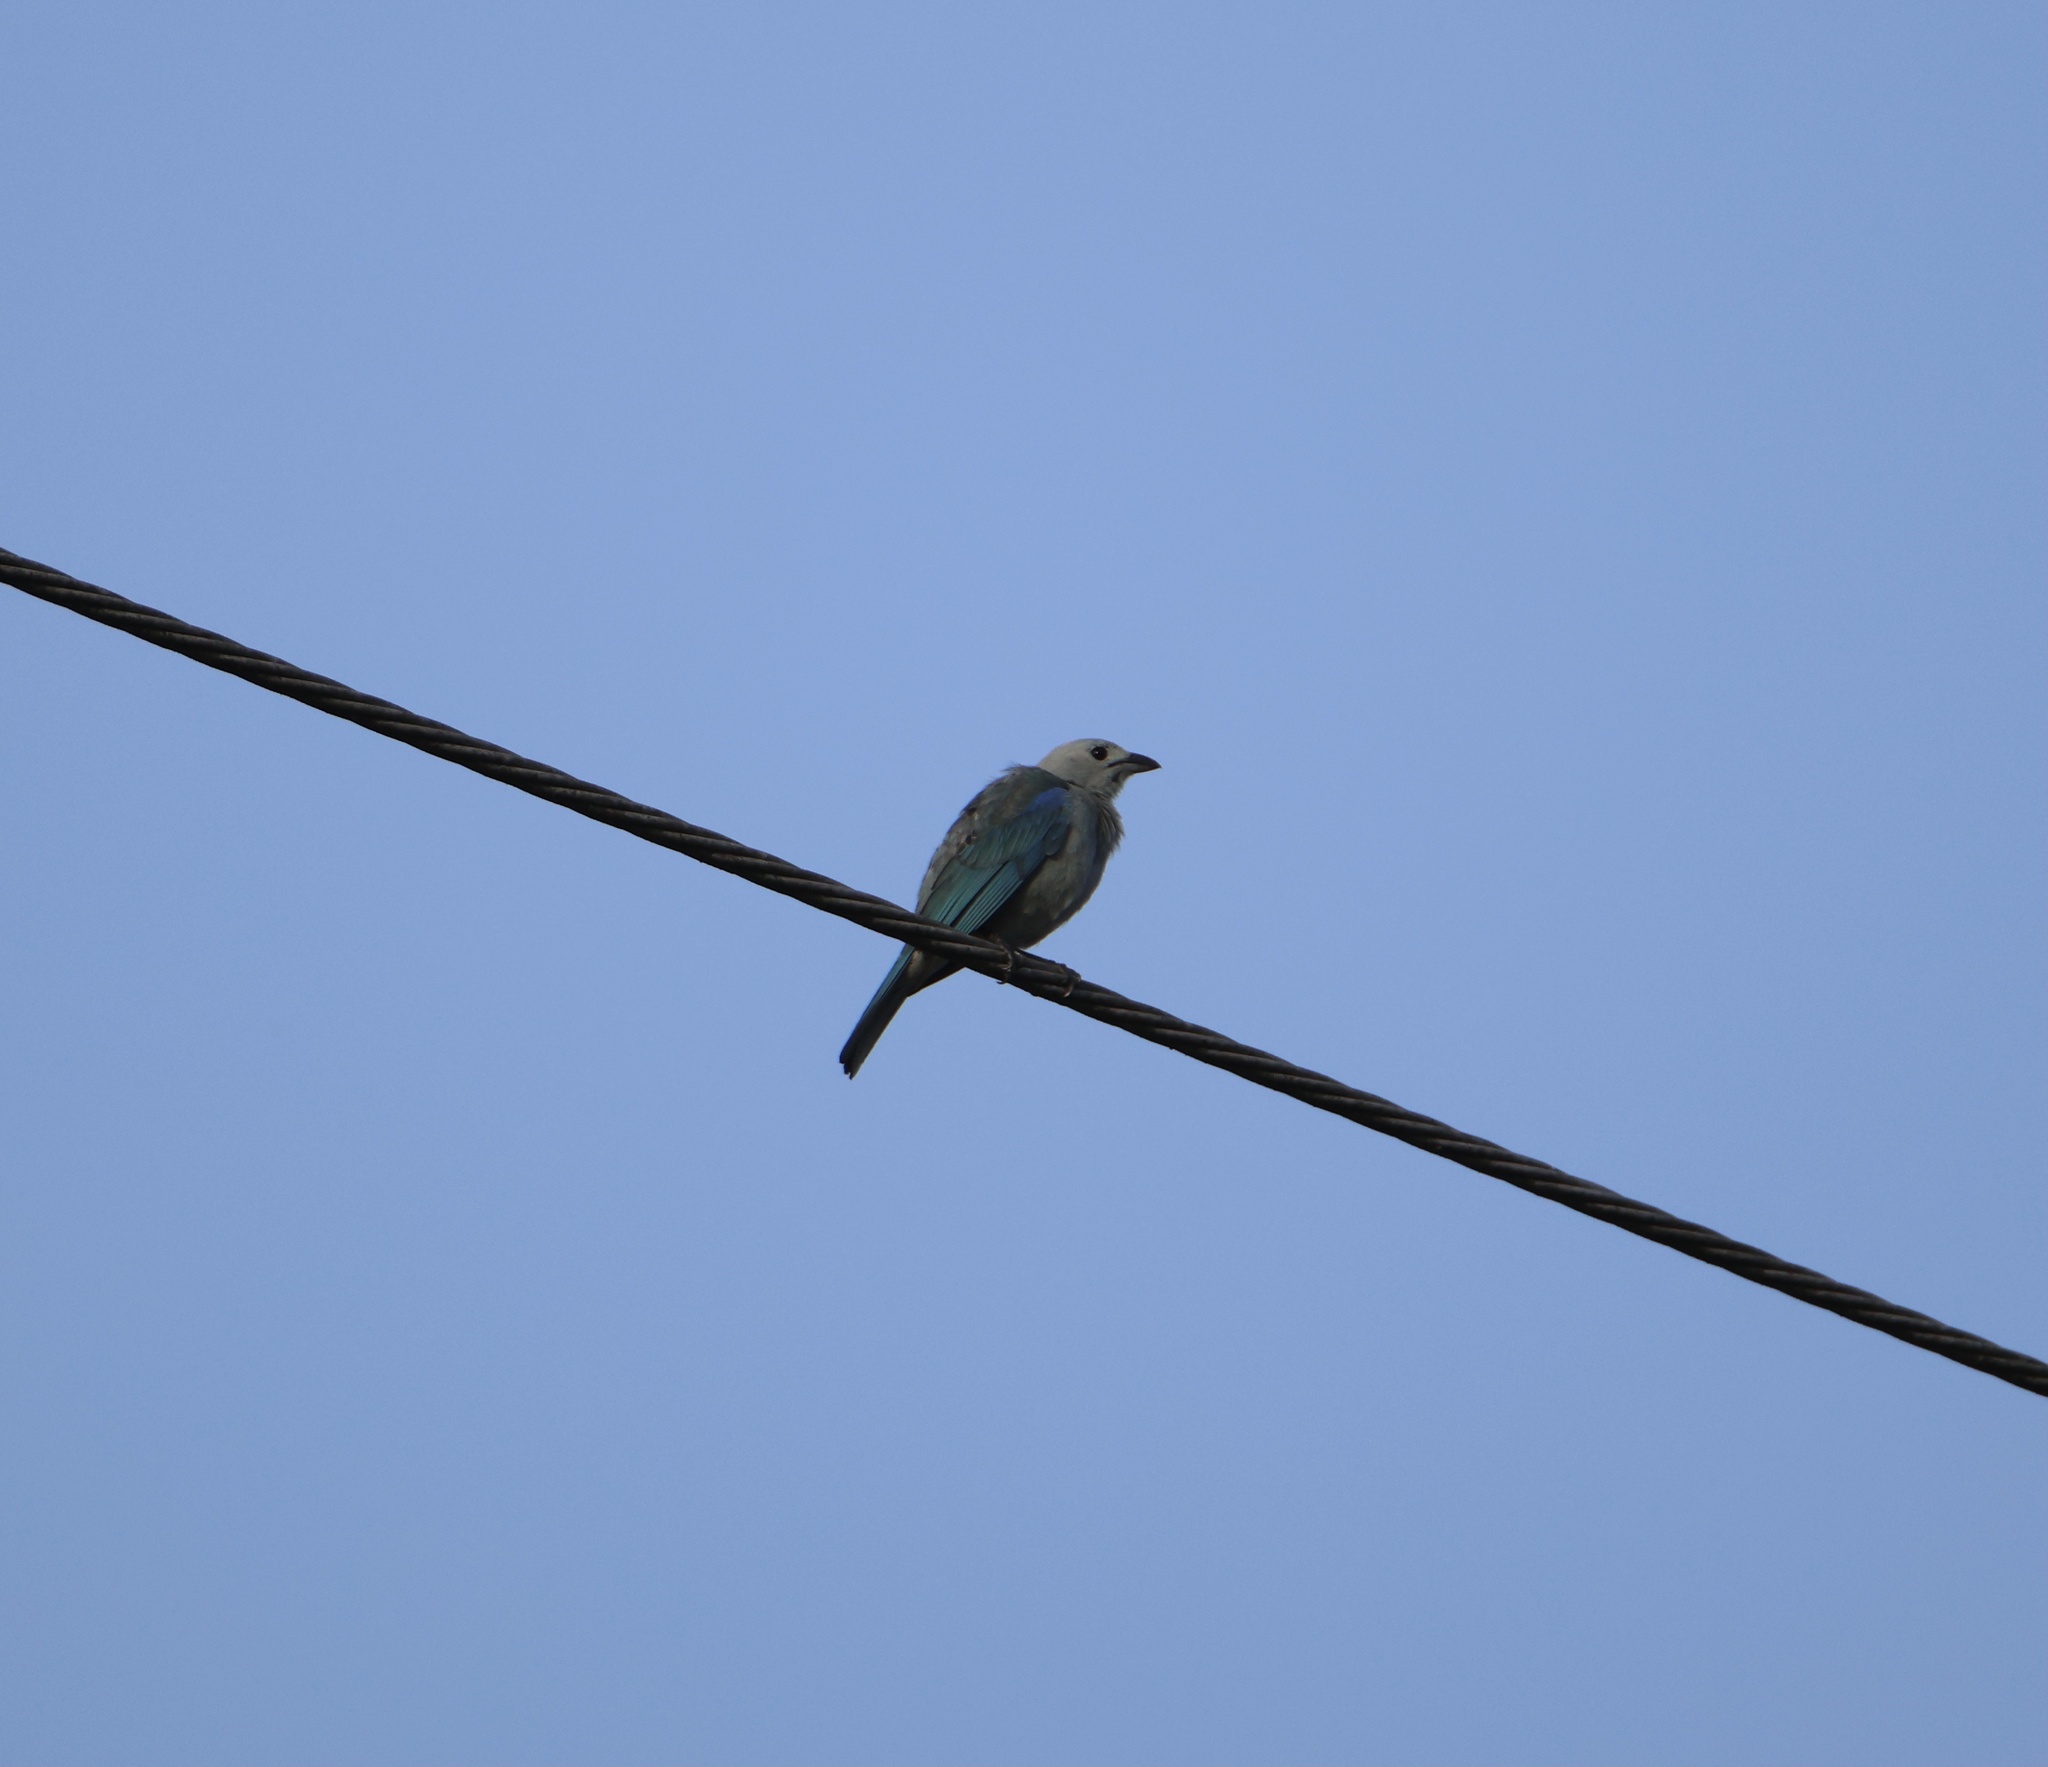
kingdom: Animalia
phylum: Chordata
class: Aves
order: Passeriformes
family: Thraupidae
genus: Thraupis
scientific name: Thraupis episcopus
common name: Blue-grey tanager
